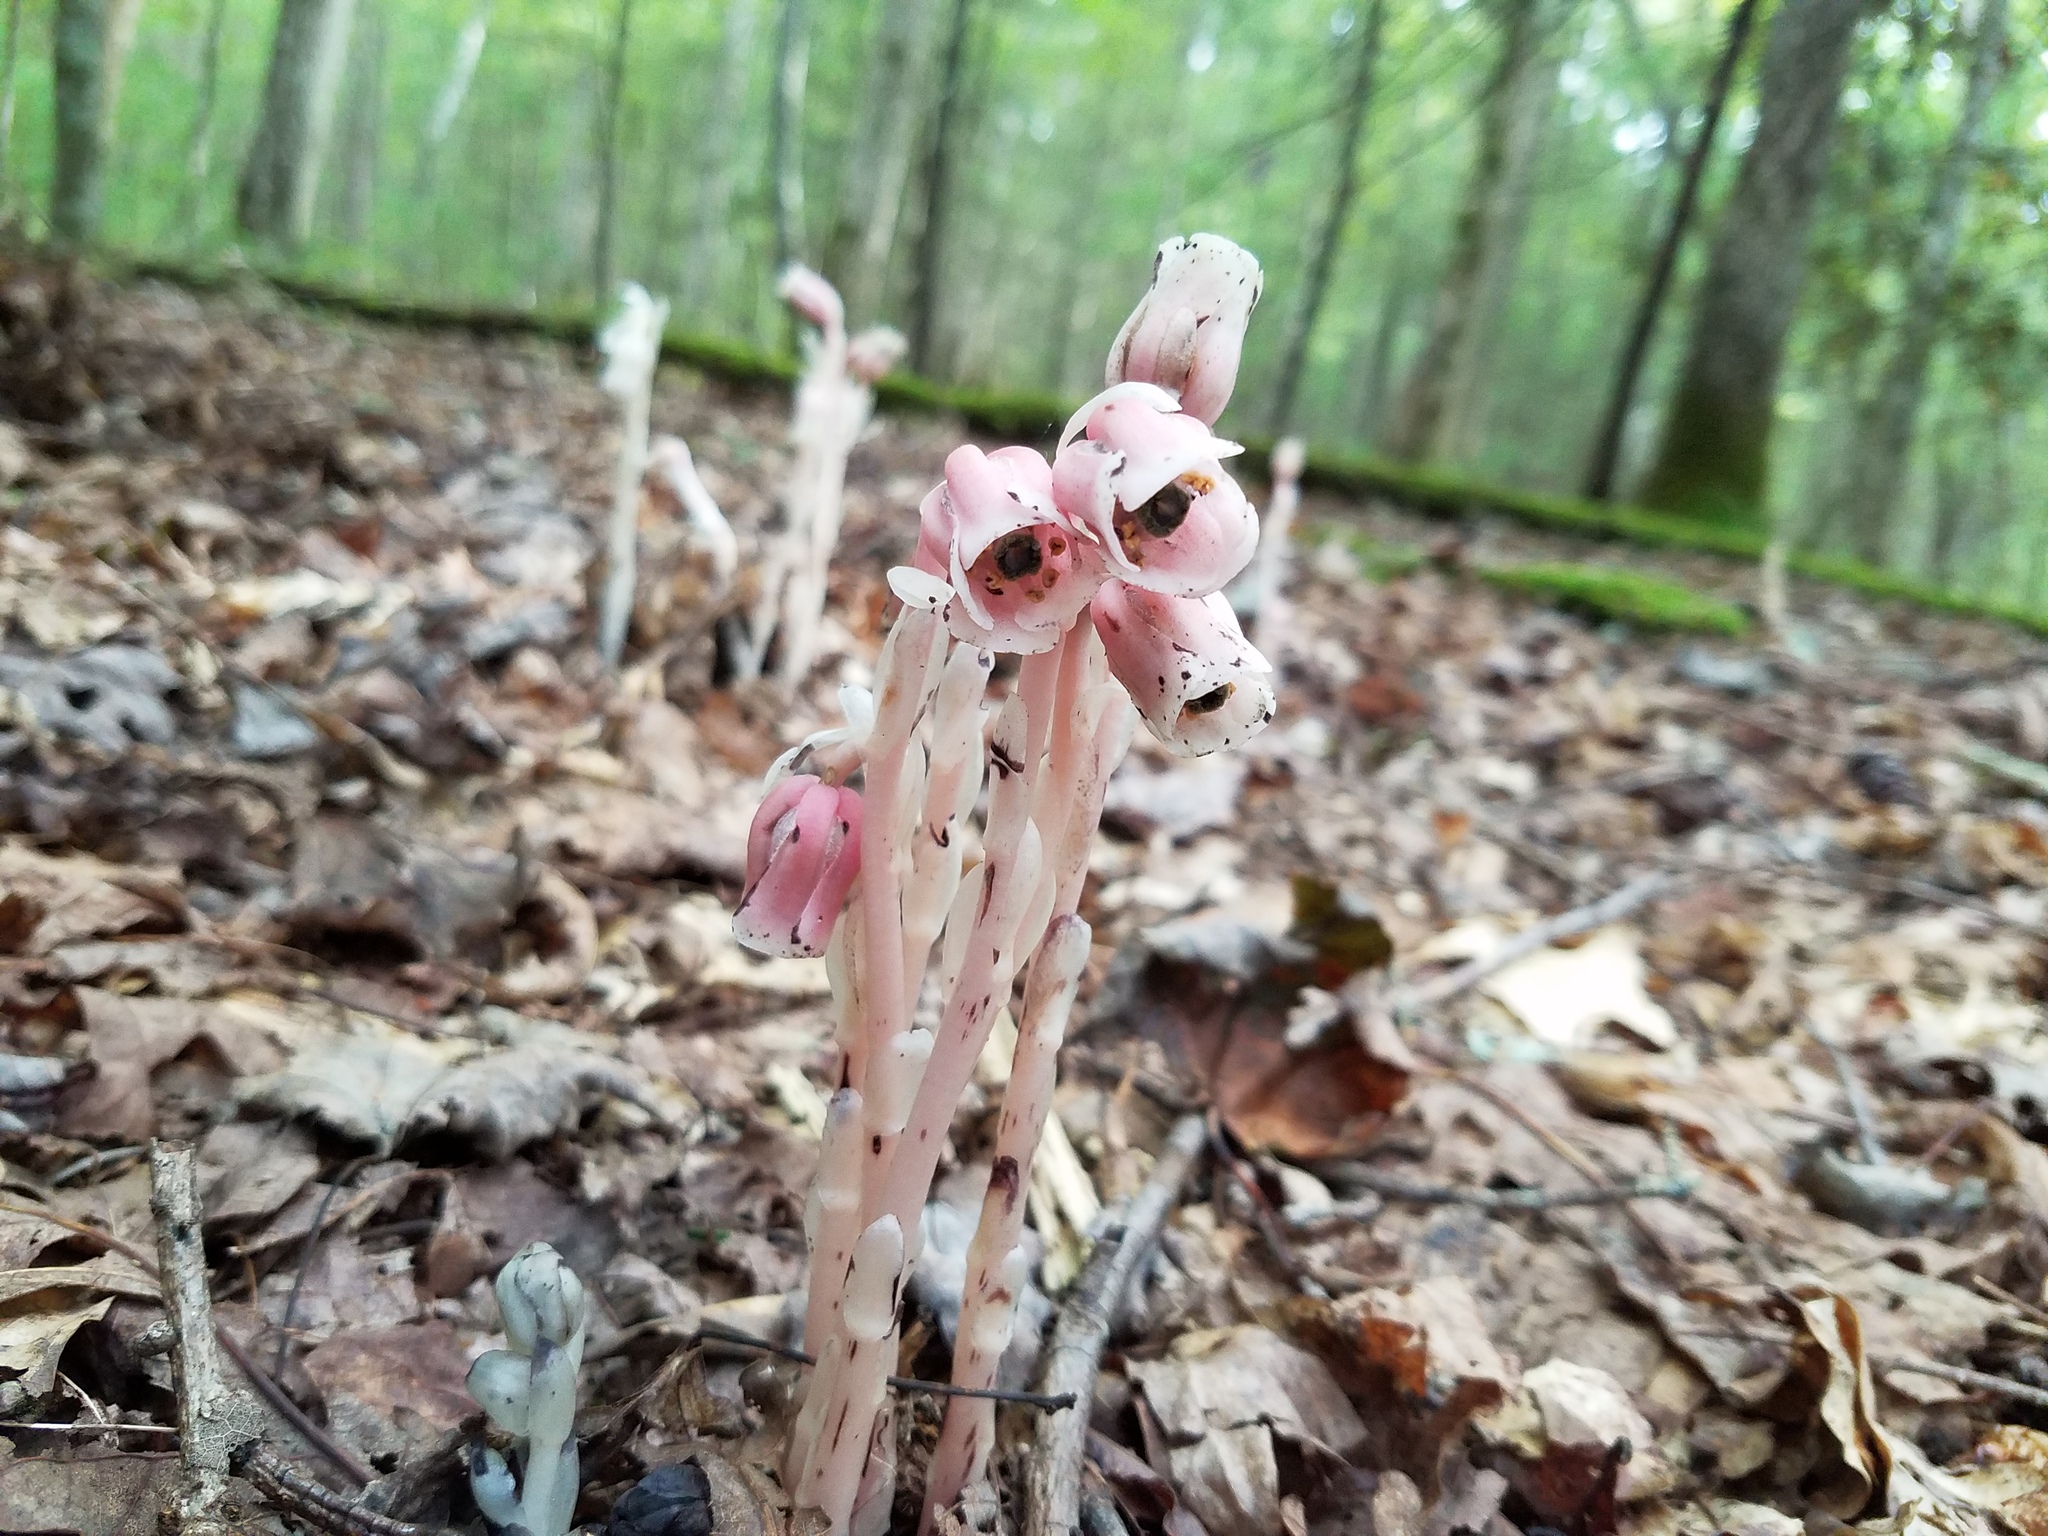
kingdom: Plantae
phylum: Tracheophyta
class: Magnoliopsida
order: Ericales
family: Ericaceae
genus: Monotropa
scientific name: Monotropa uniflora
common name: Convulsion root
